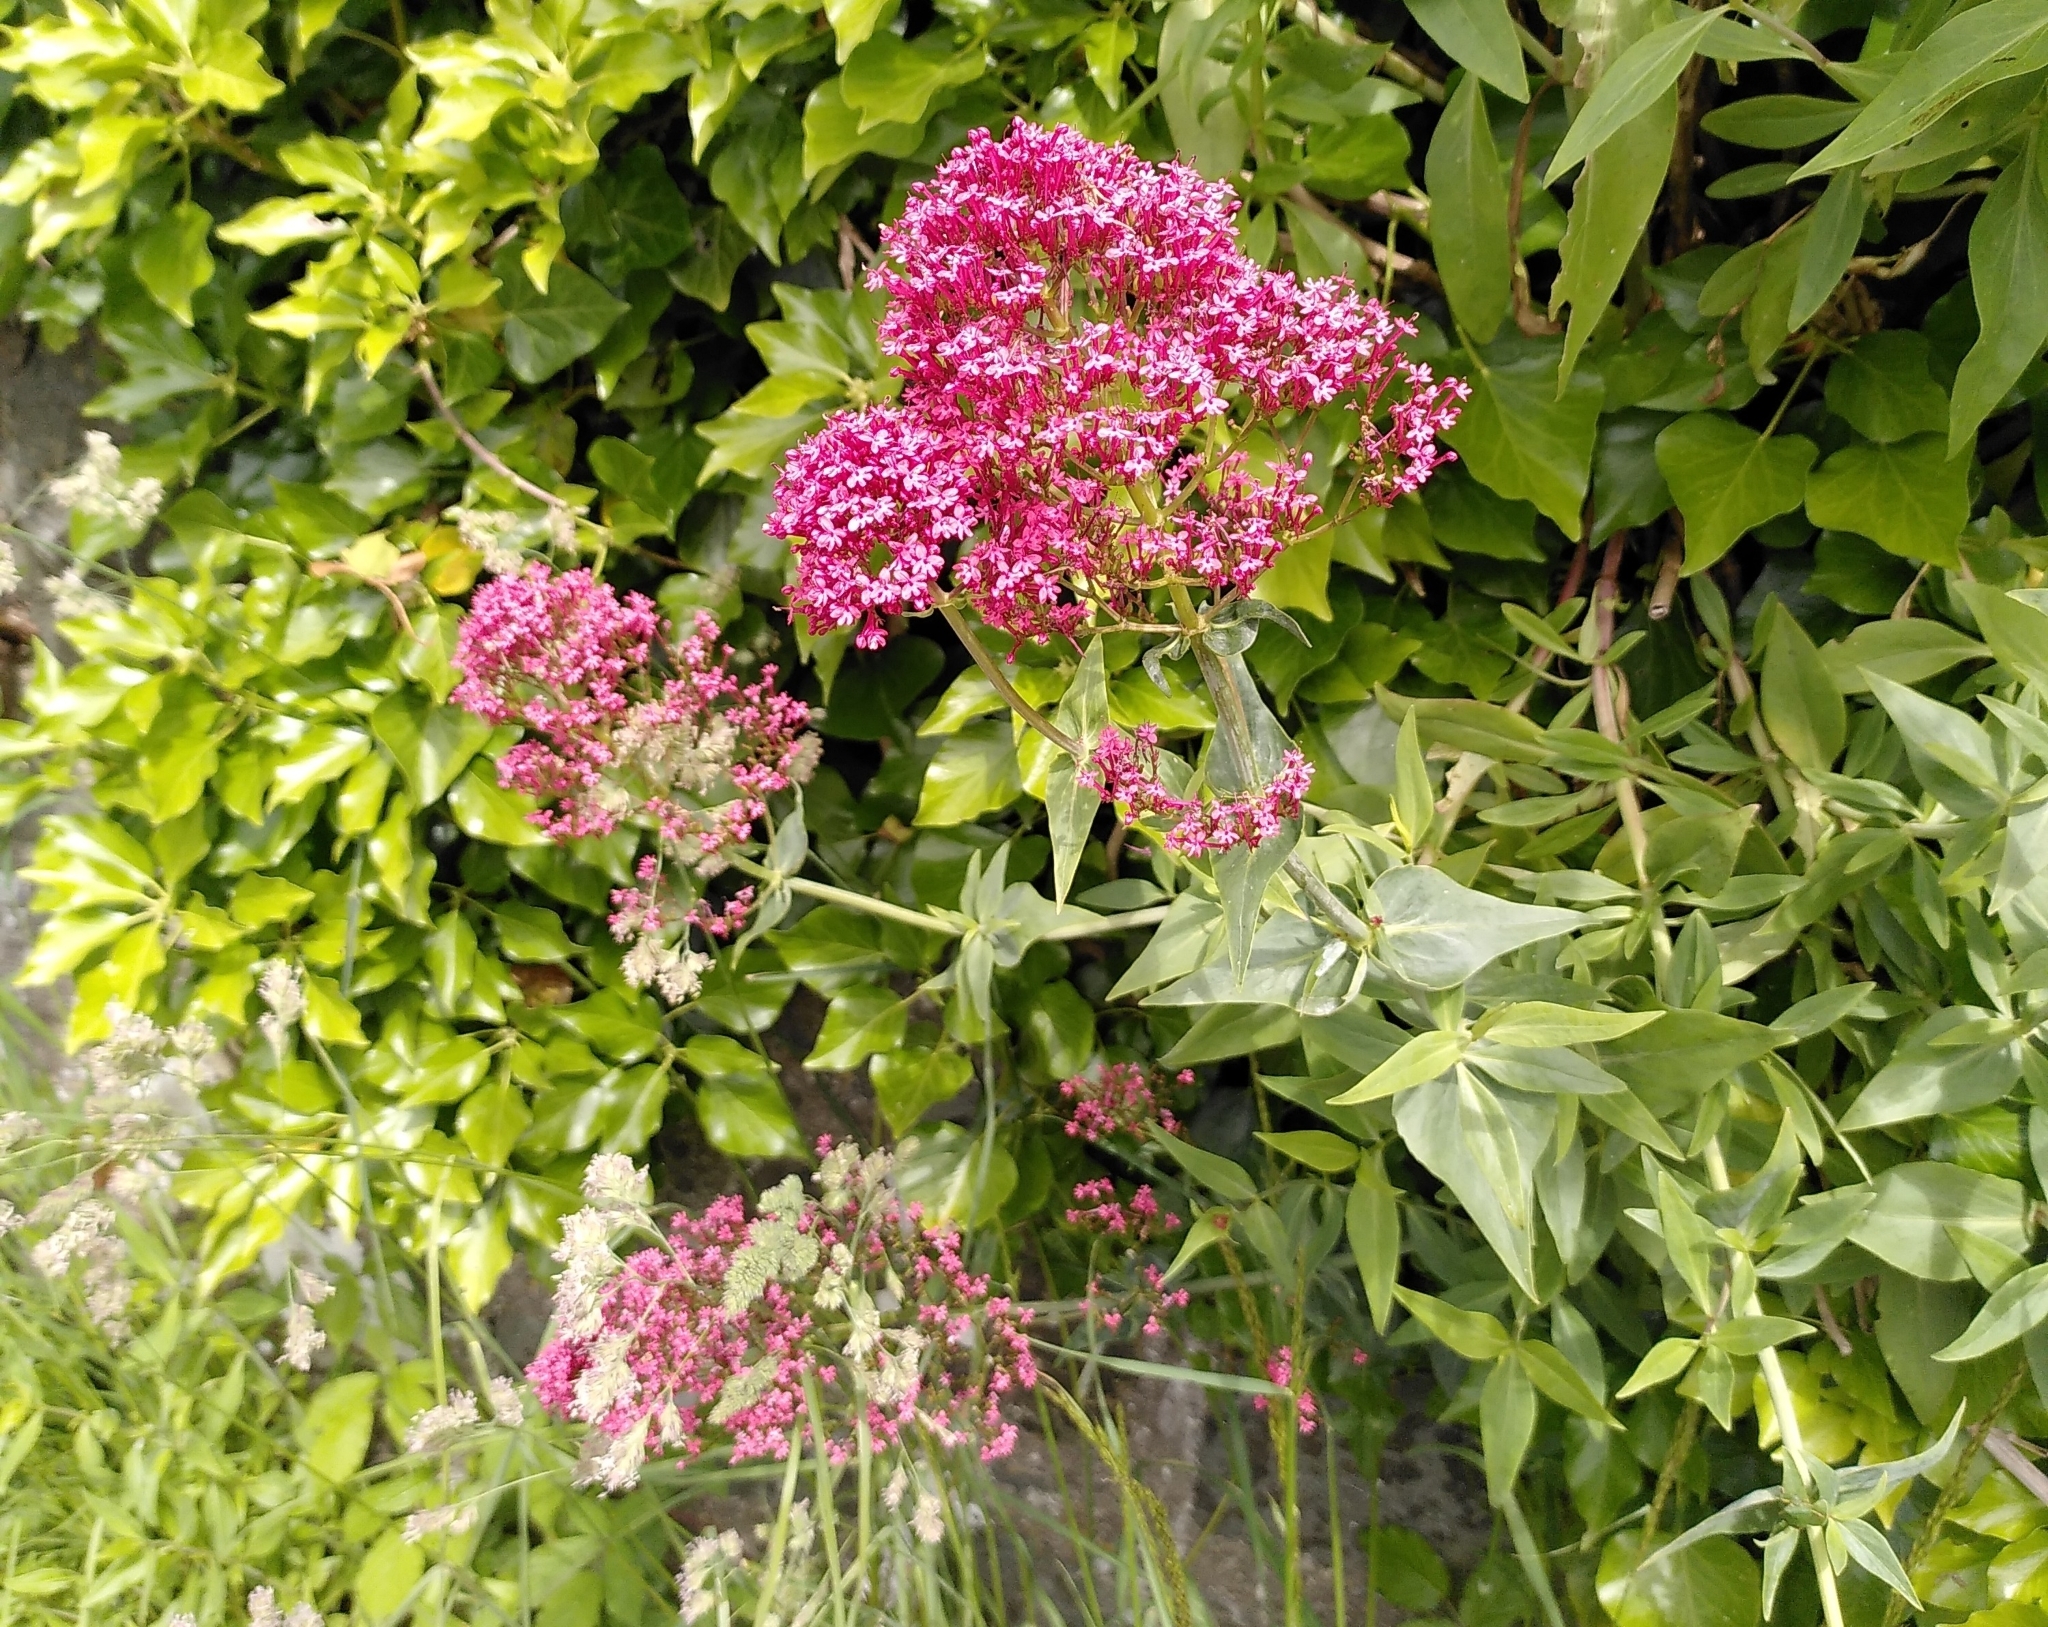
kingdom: Plantae
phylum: Tracheophyta
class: Magnoliopsida
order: Dipsacales
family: Caprifoliaceae
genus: Centranthus
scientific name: Centranthus ruber
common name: Red valerian
